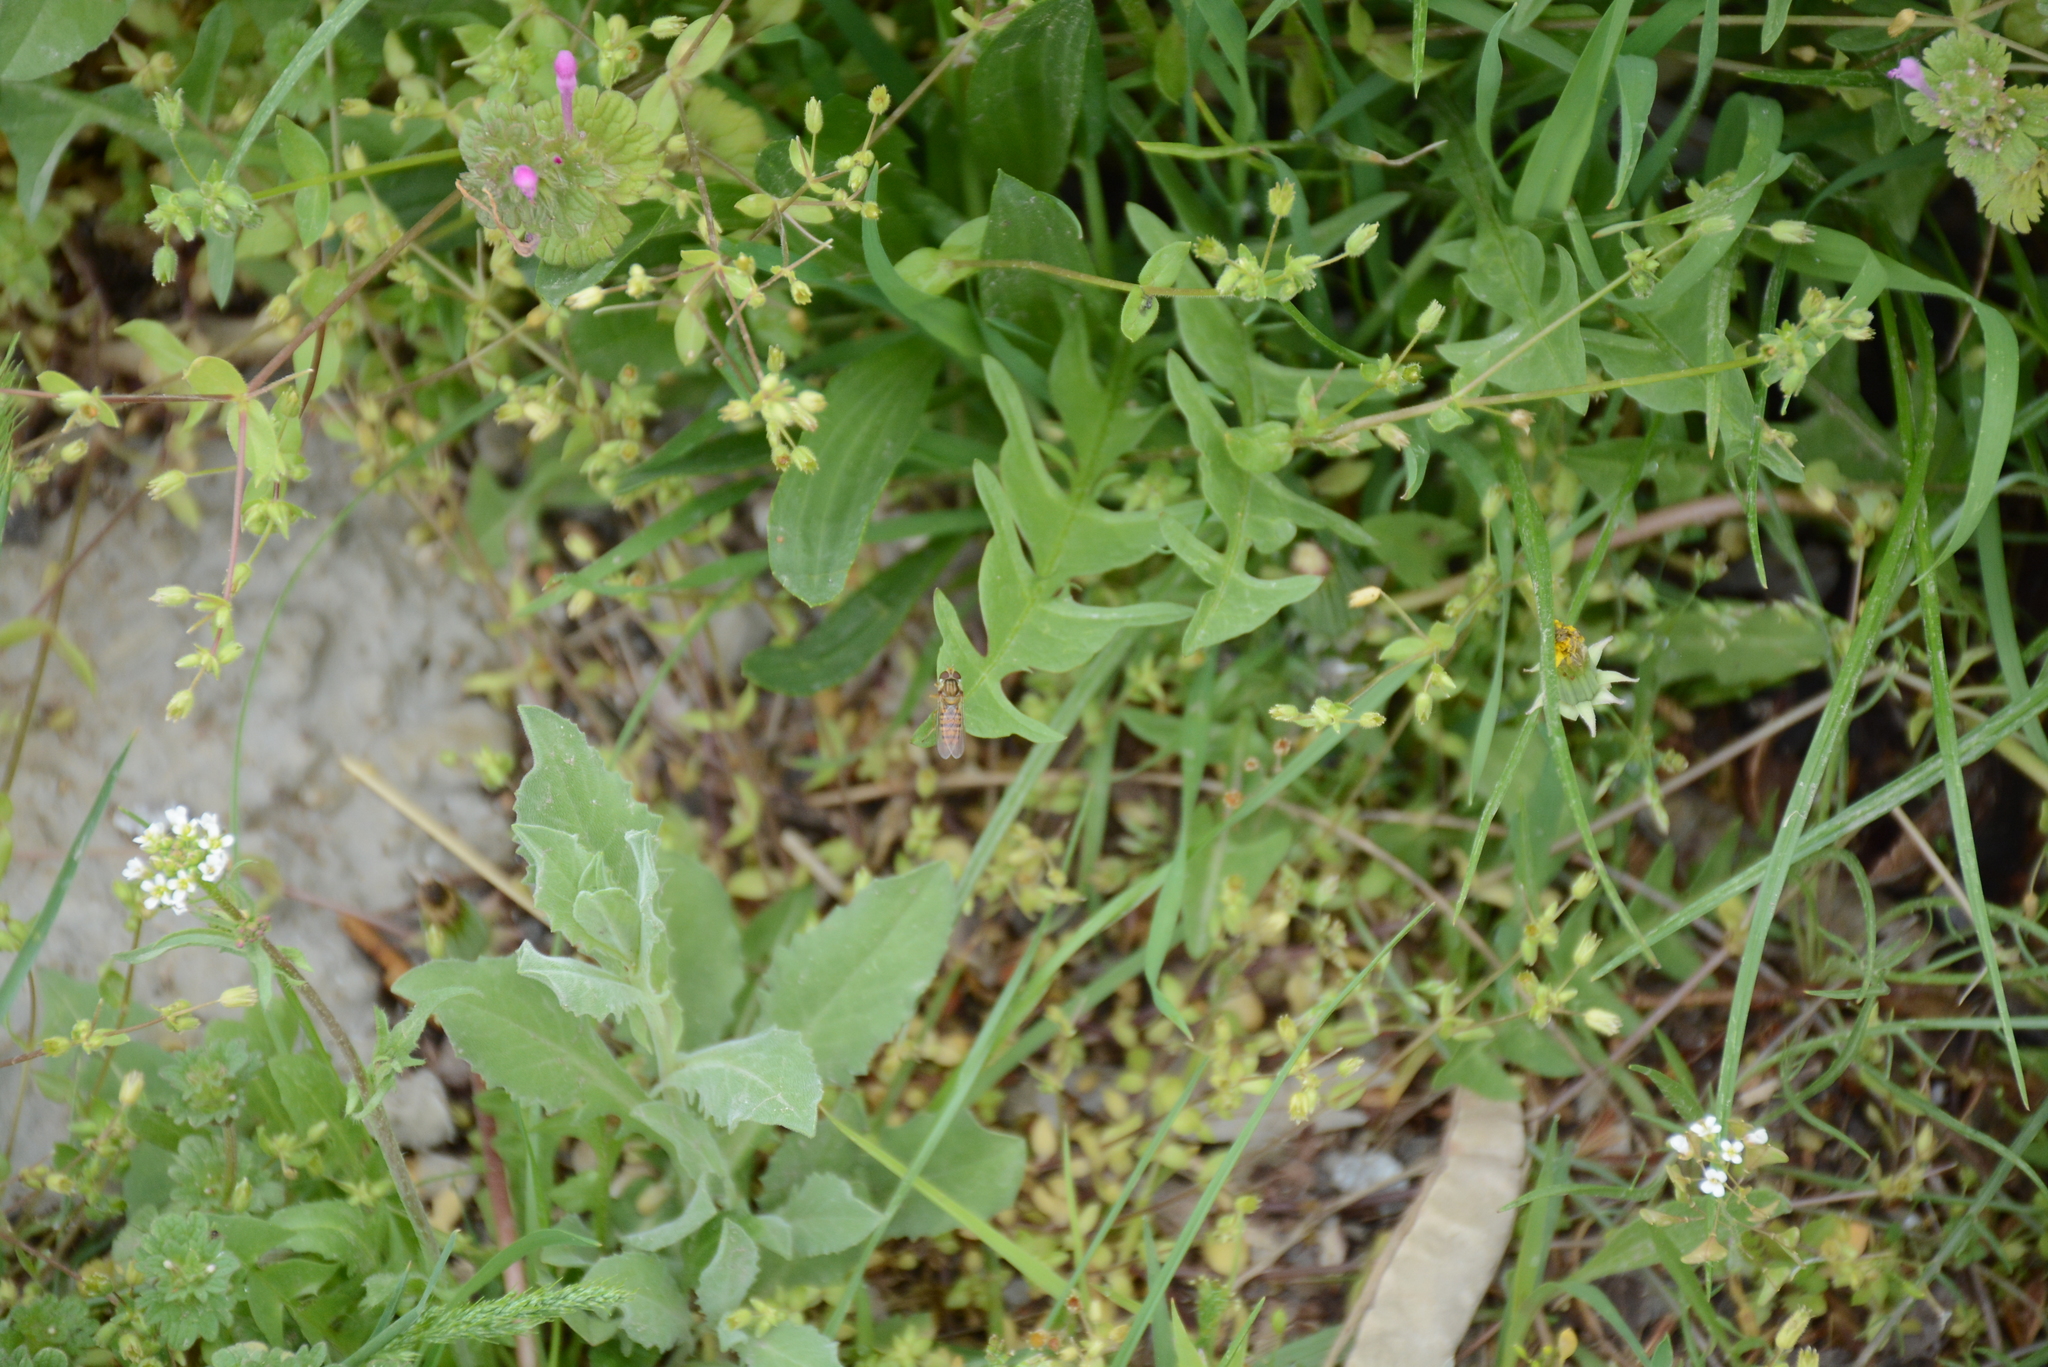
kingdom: Animalia
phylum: Arthropoda
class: Insecta
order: Diptera
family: Syrphidae
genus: Episyrphus
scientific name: Episyrphus balteatus
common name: Marmalade hoverfly
